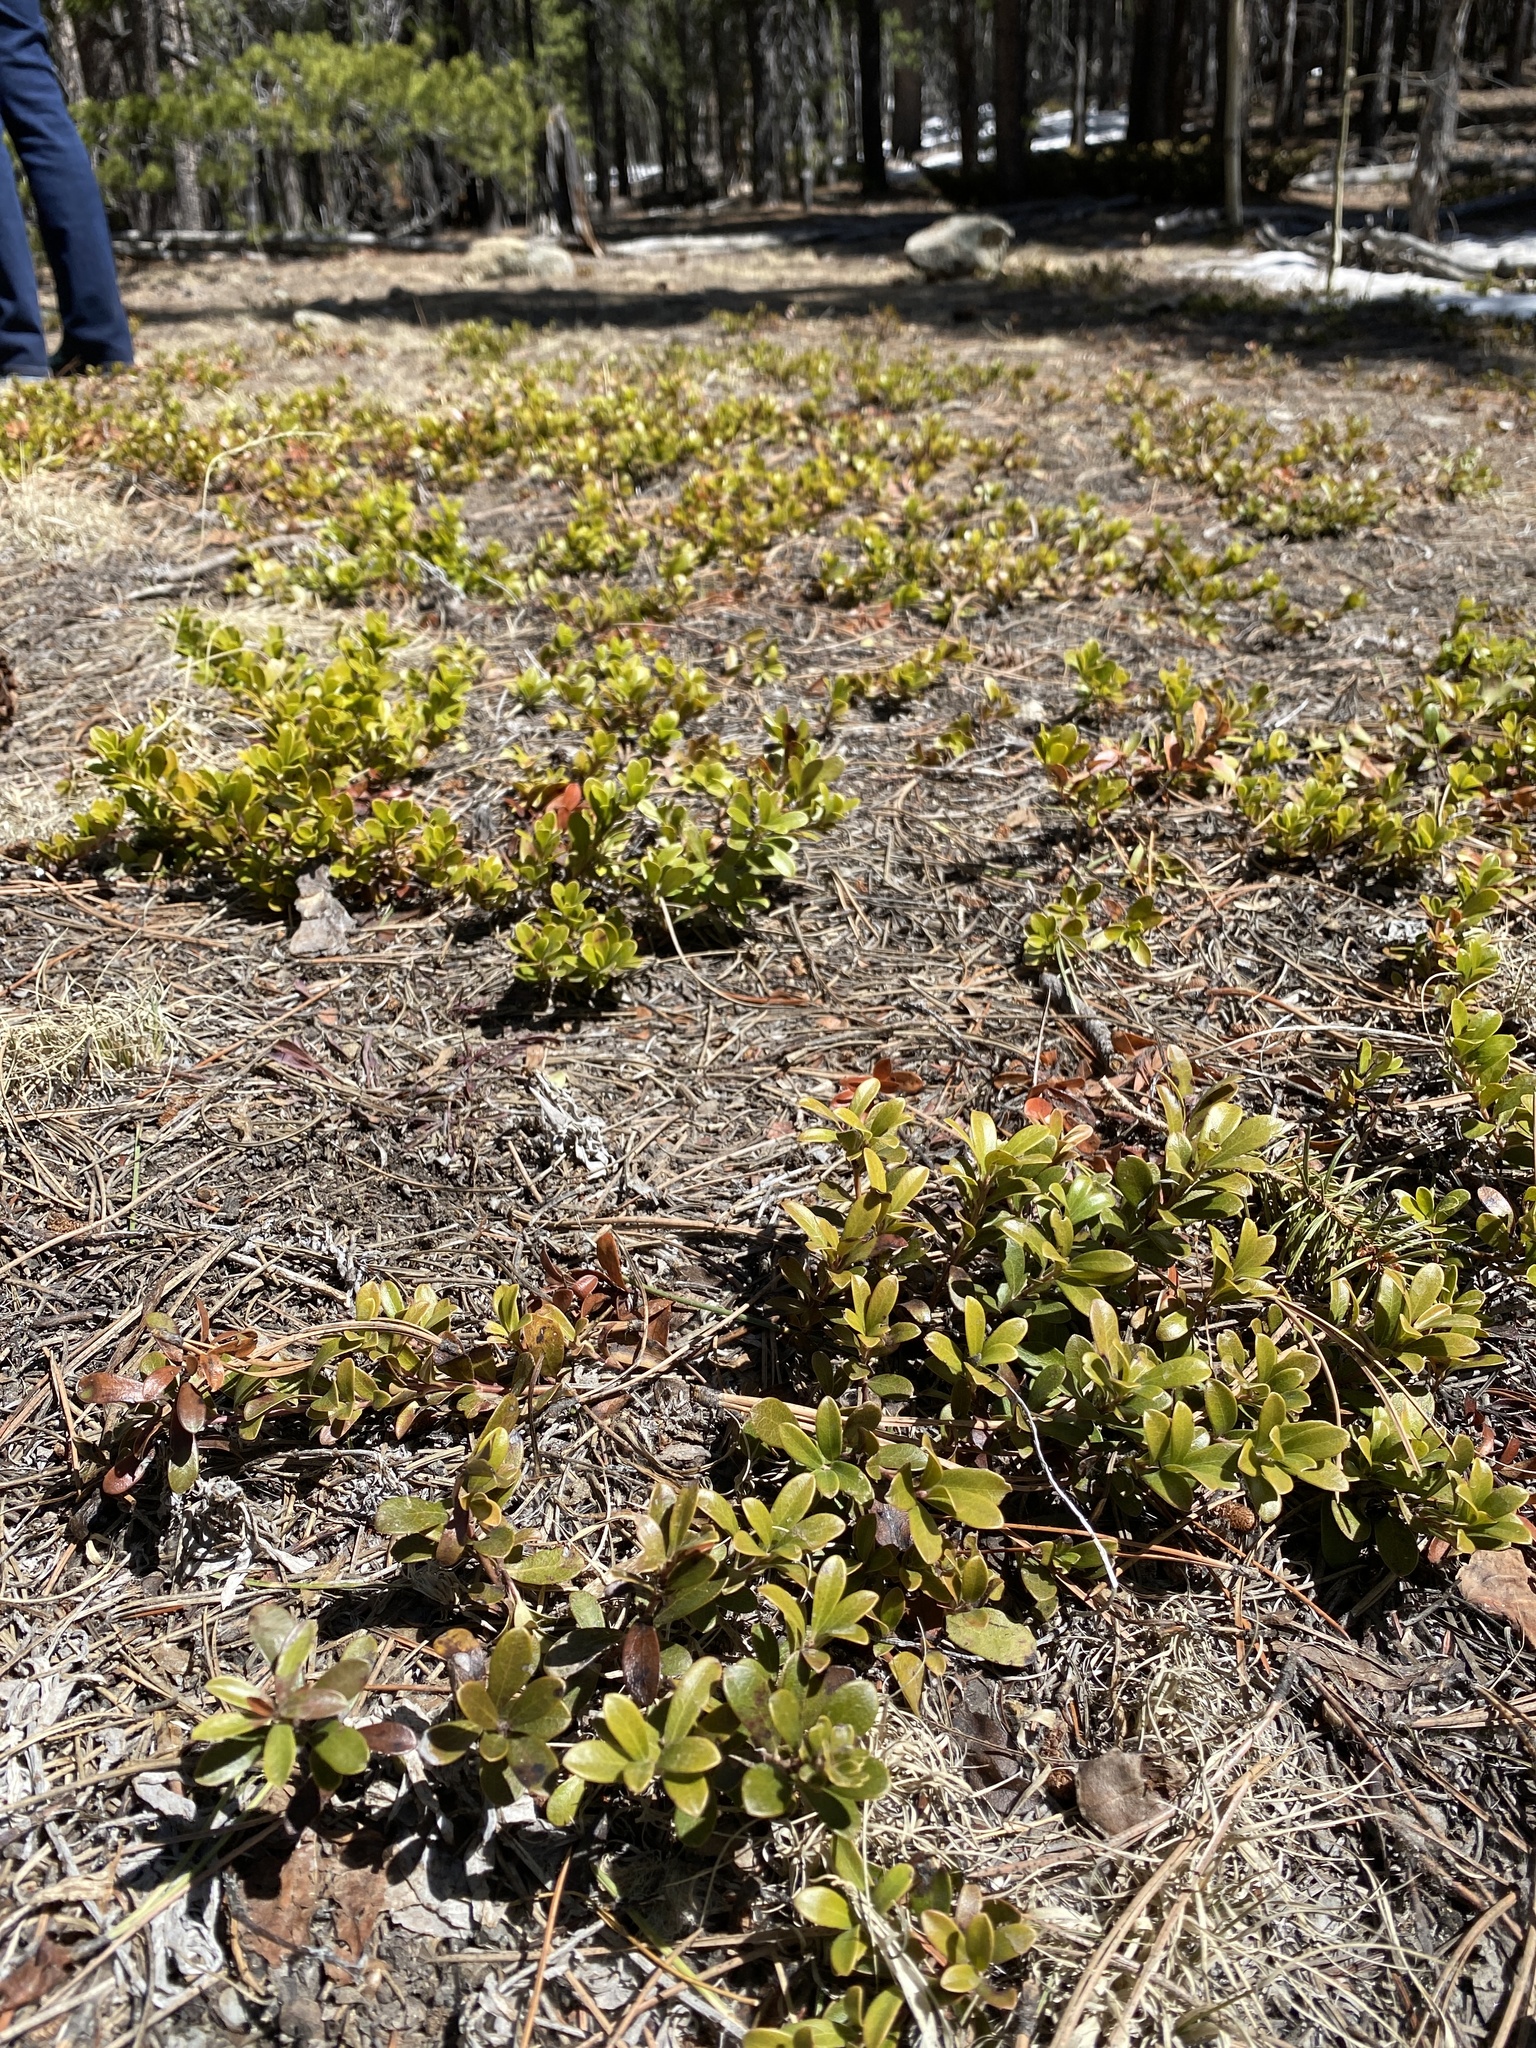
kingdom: Plantae
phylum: Tracheophyta
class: Magnoliopsida
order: Ericales
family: Ericaceae
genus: Arctostaphylos
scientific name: Arctostaphylos uva-ursi
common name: Bearberry
